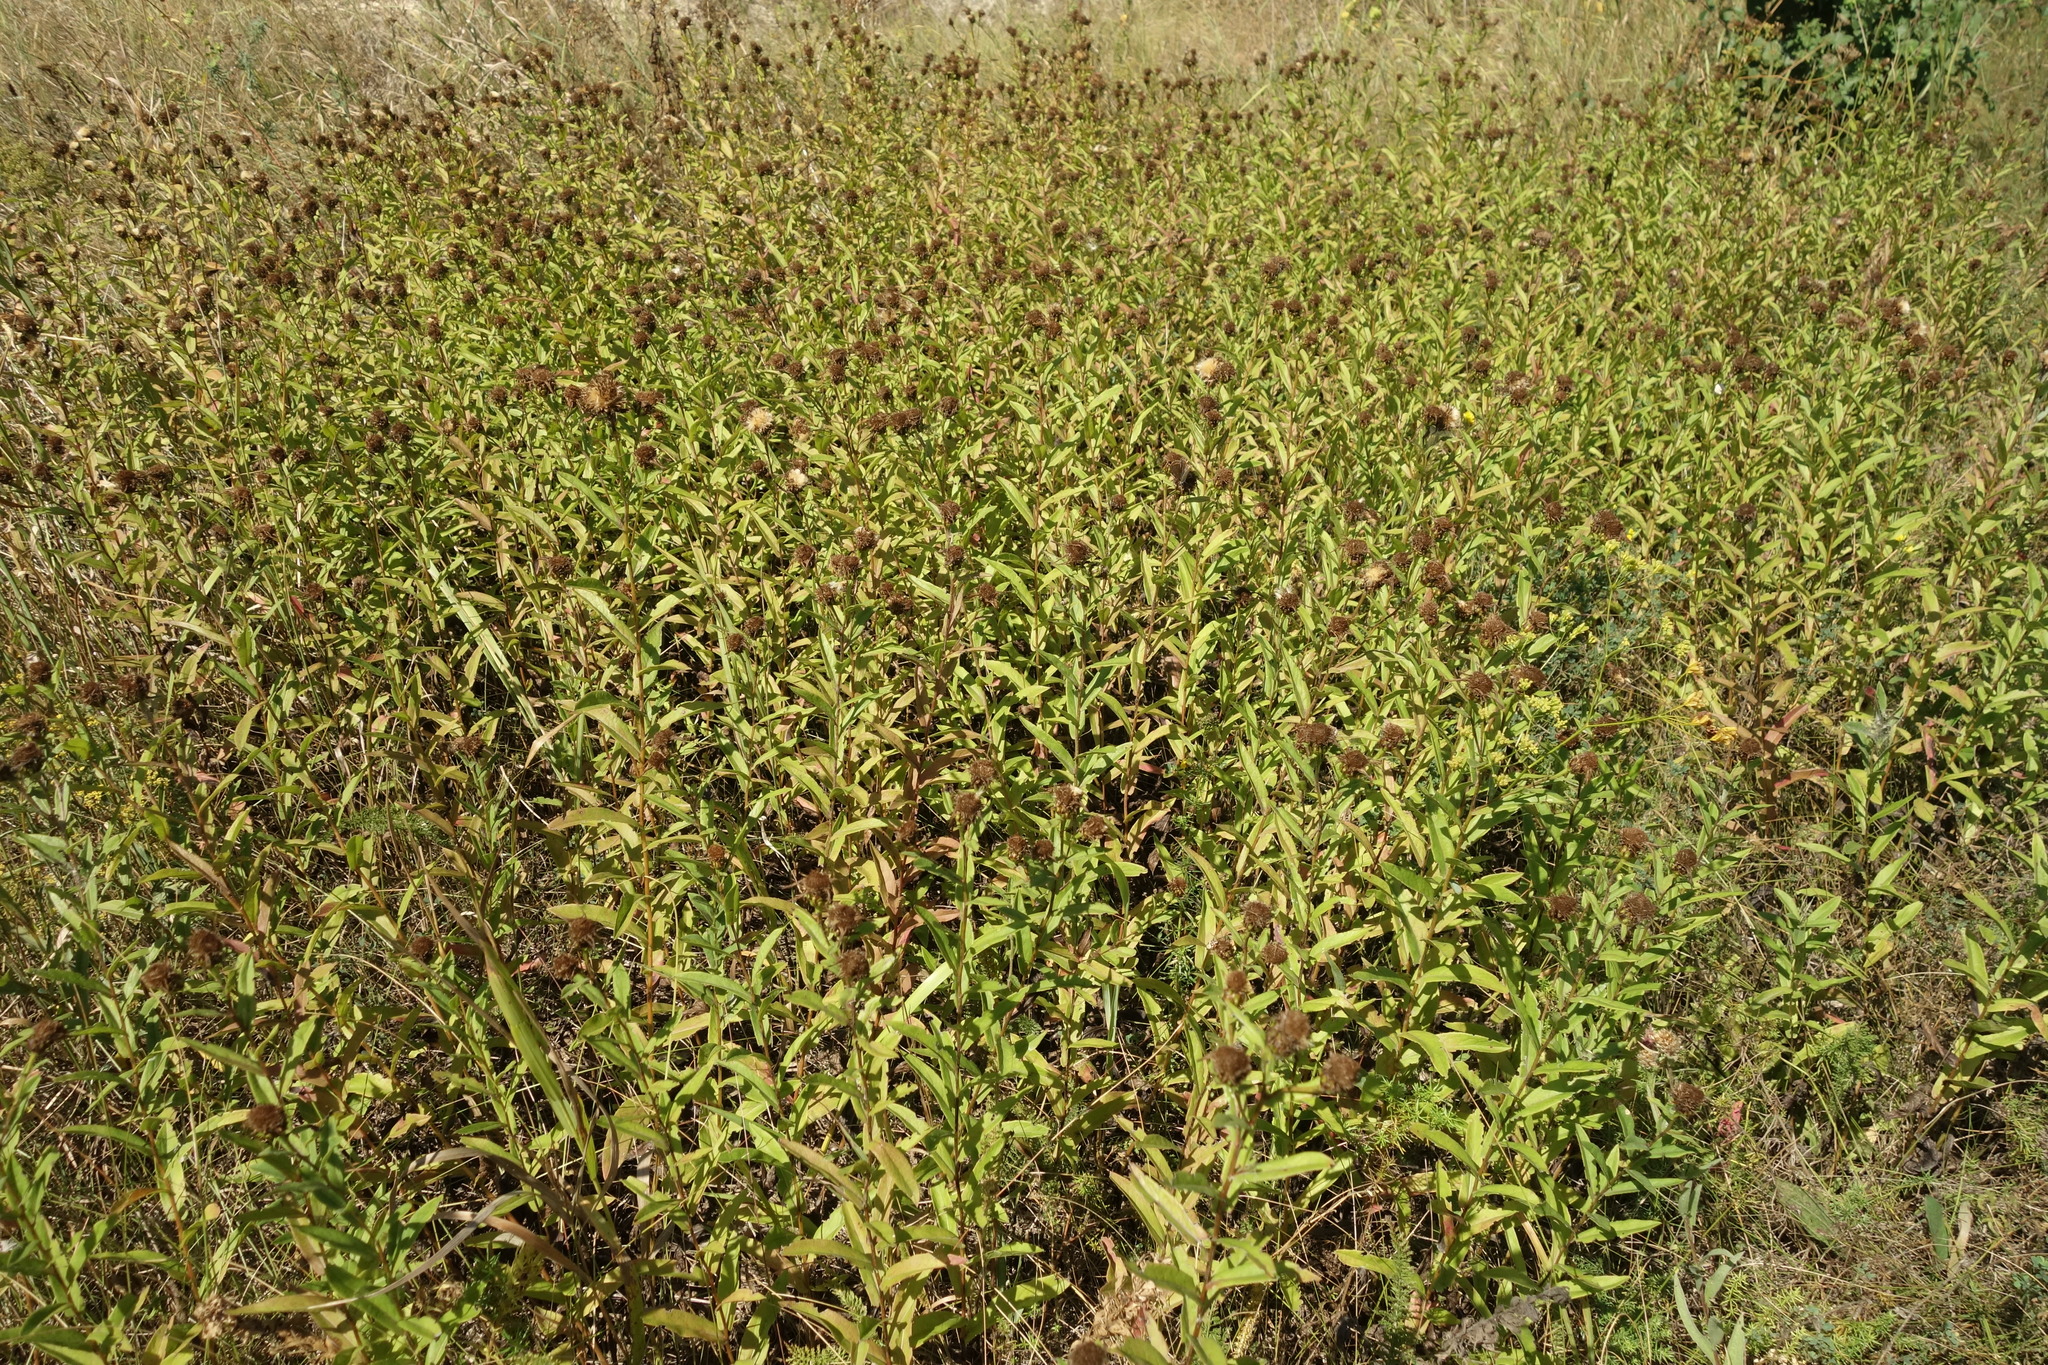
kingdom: Plantae
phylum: Tracheophyta
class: Magnoliopsida
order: Asterales
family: Asteraceae
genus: Pentanema
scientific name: Pentanema salicinum
